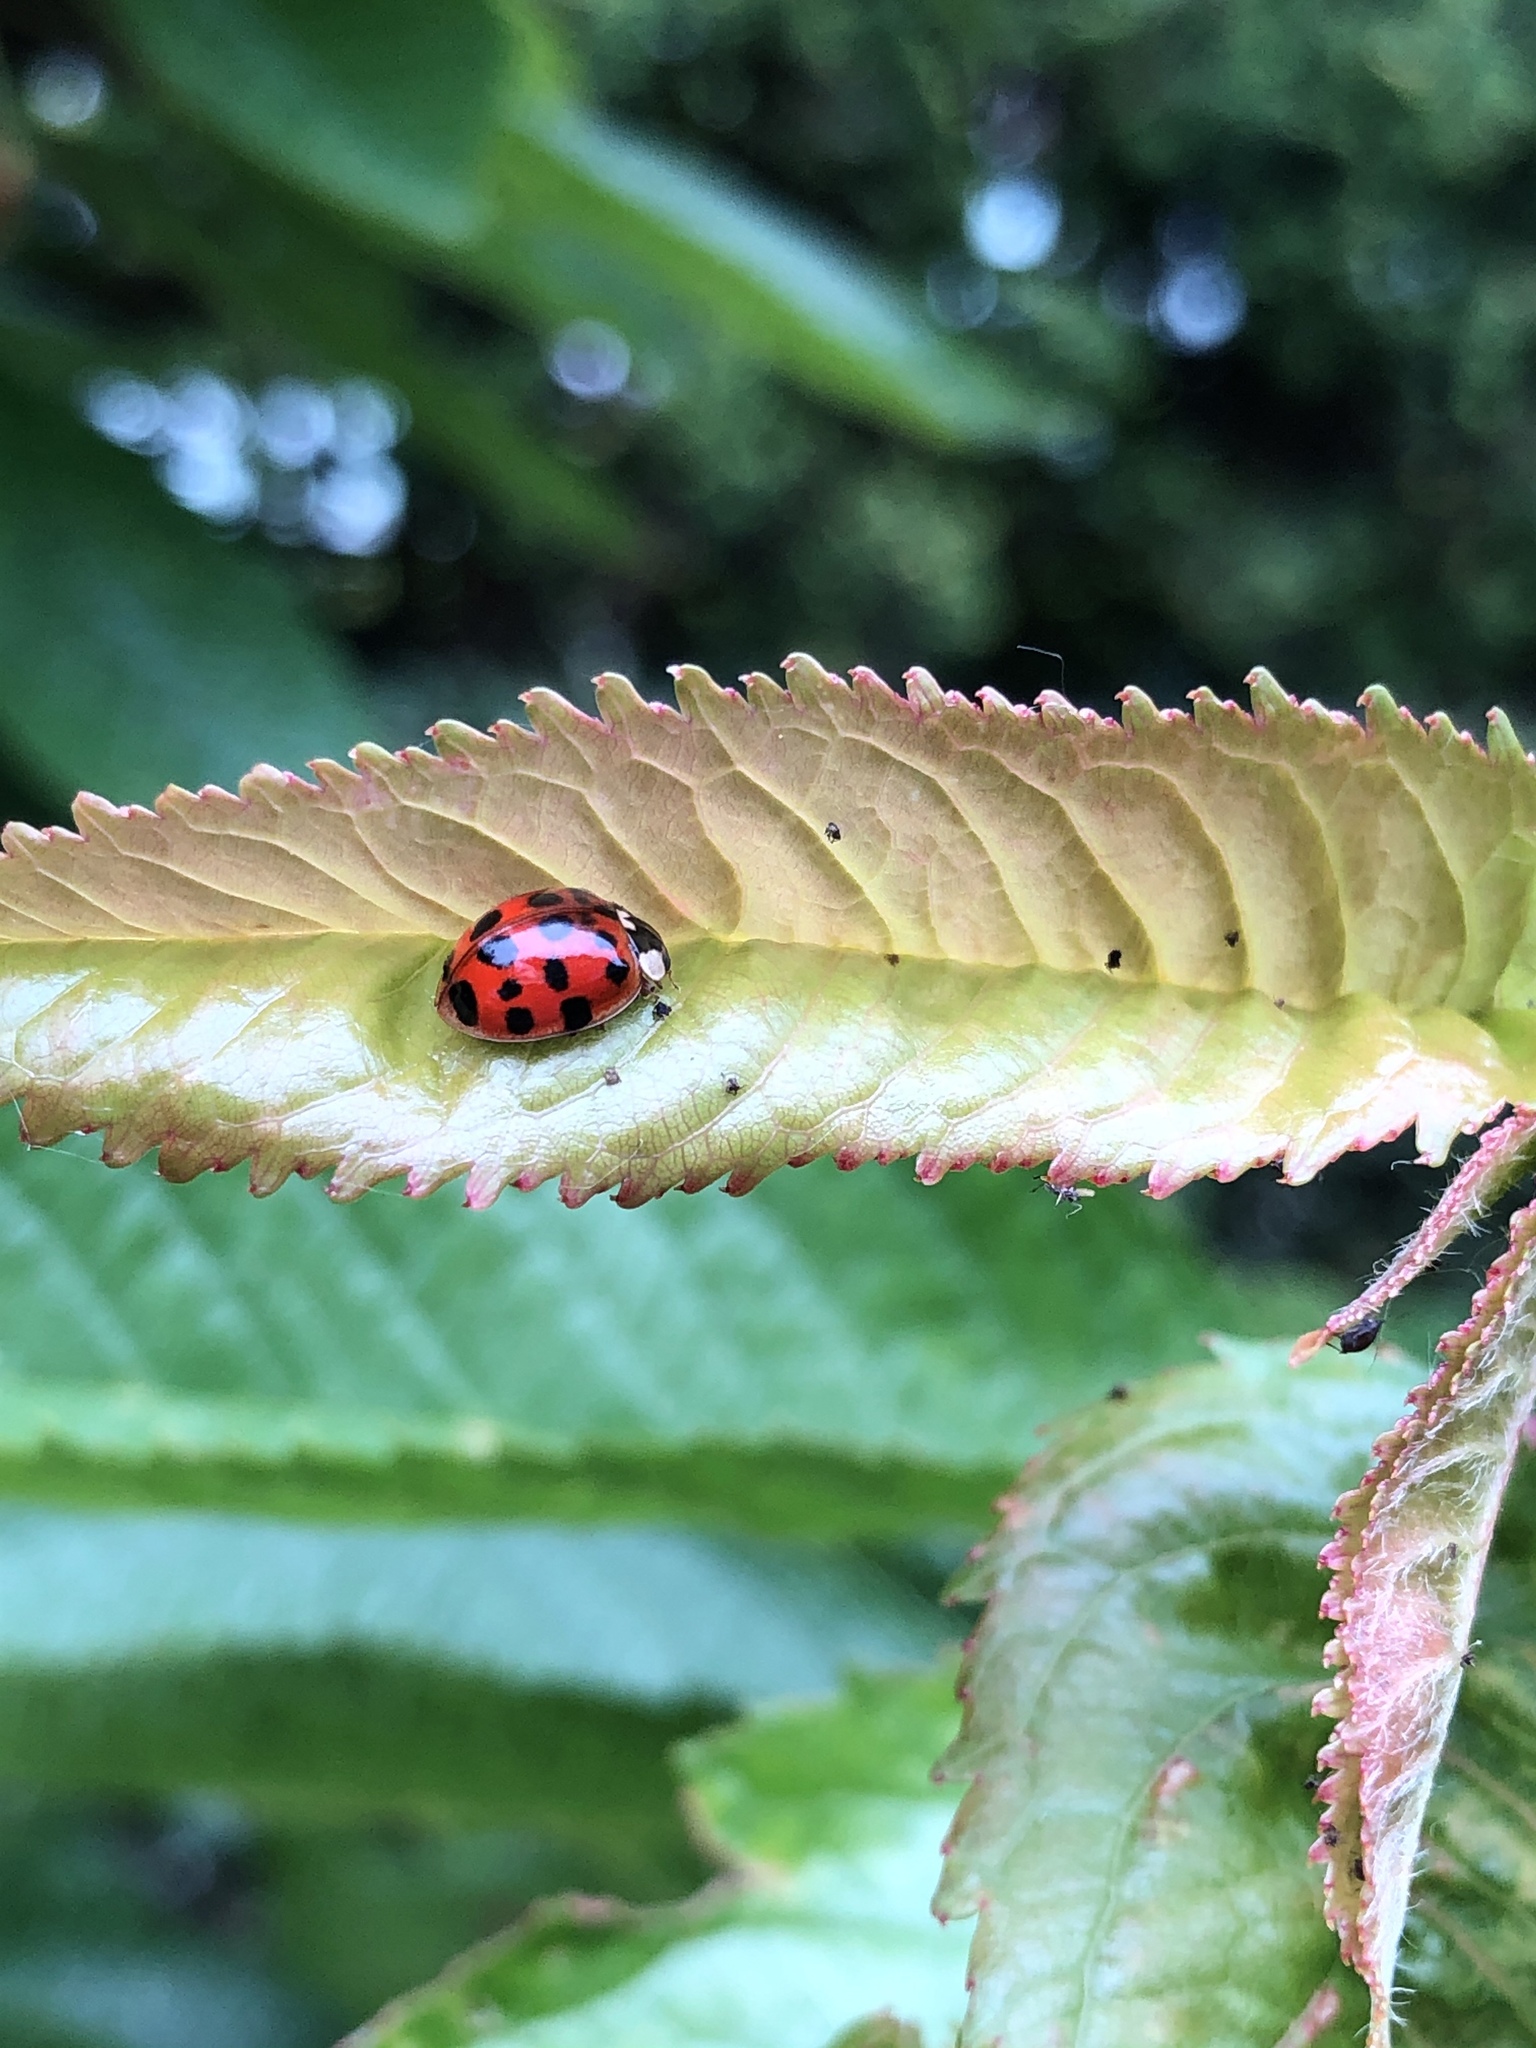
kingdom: Animalia
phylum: Arthropoda
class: Insecta
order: Coleoptera
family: Coccinellidae
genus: Harmonia
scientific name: Harmonia axyridis
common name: Harlequin ladybird
